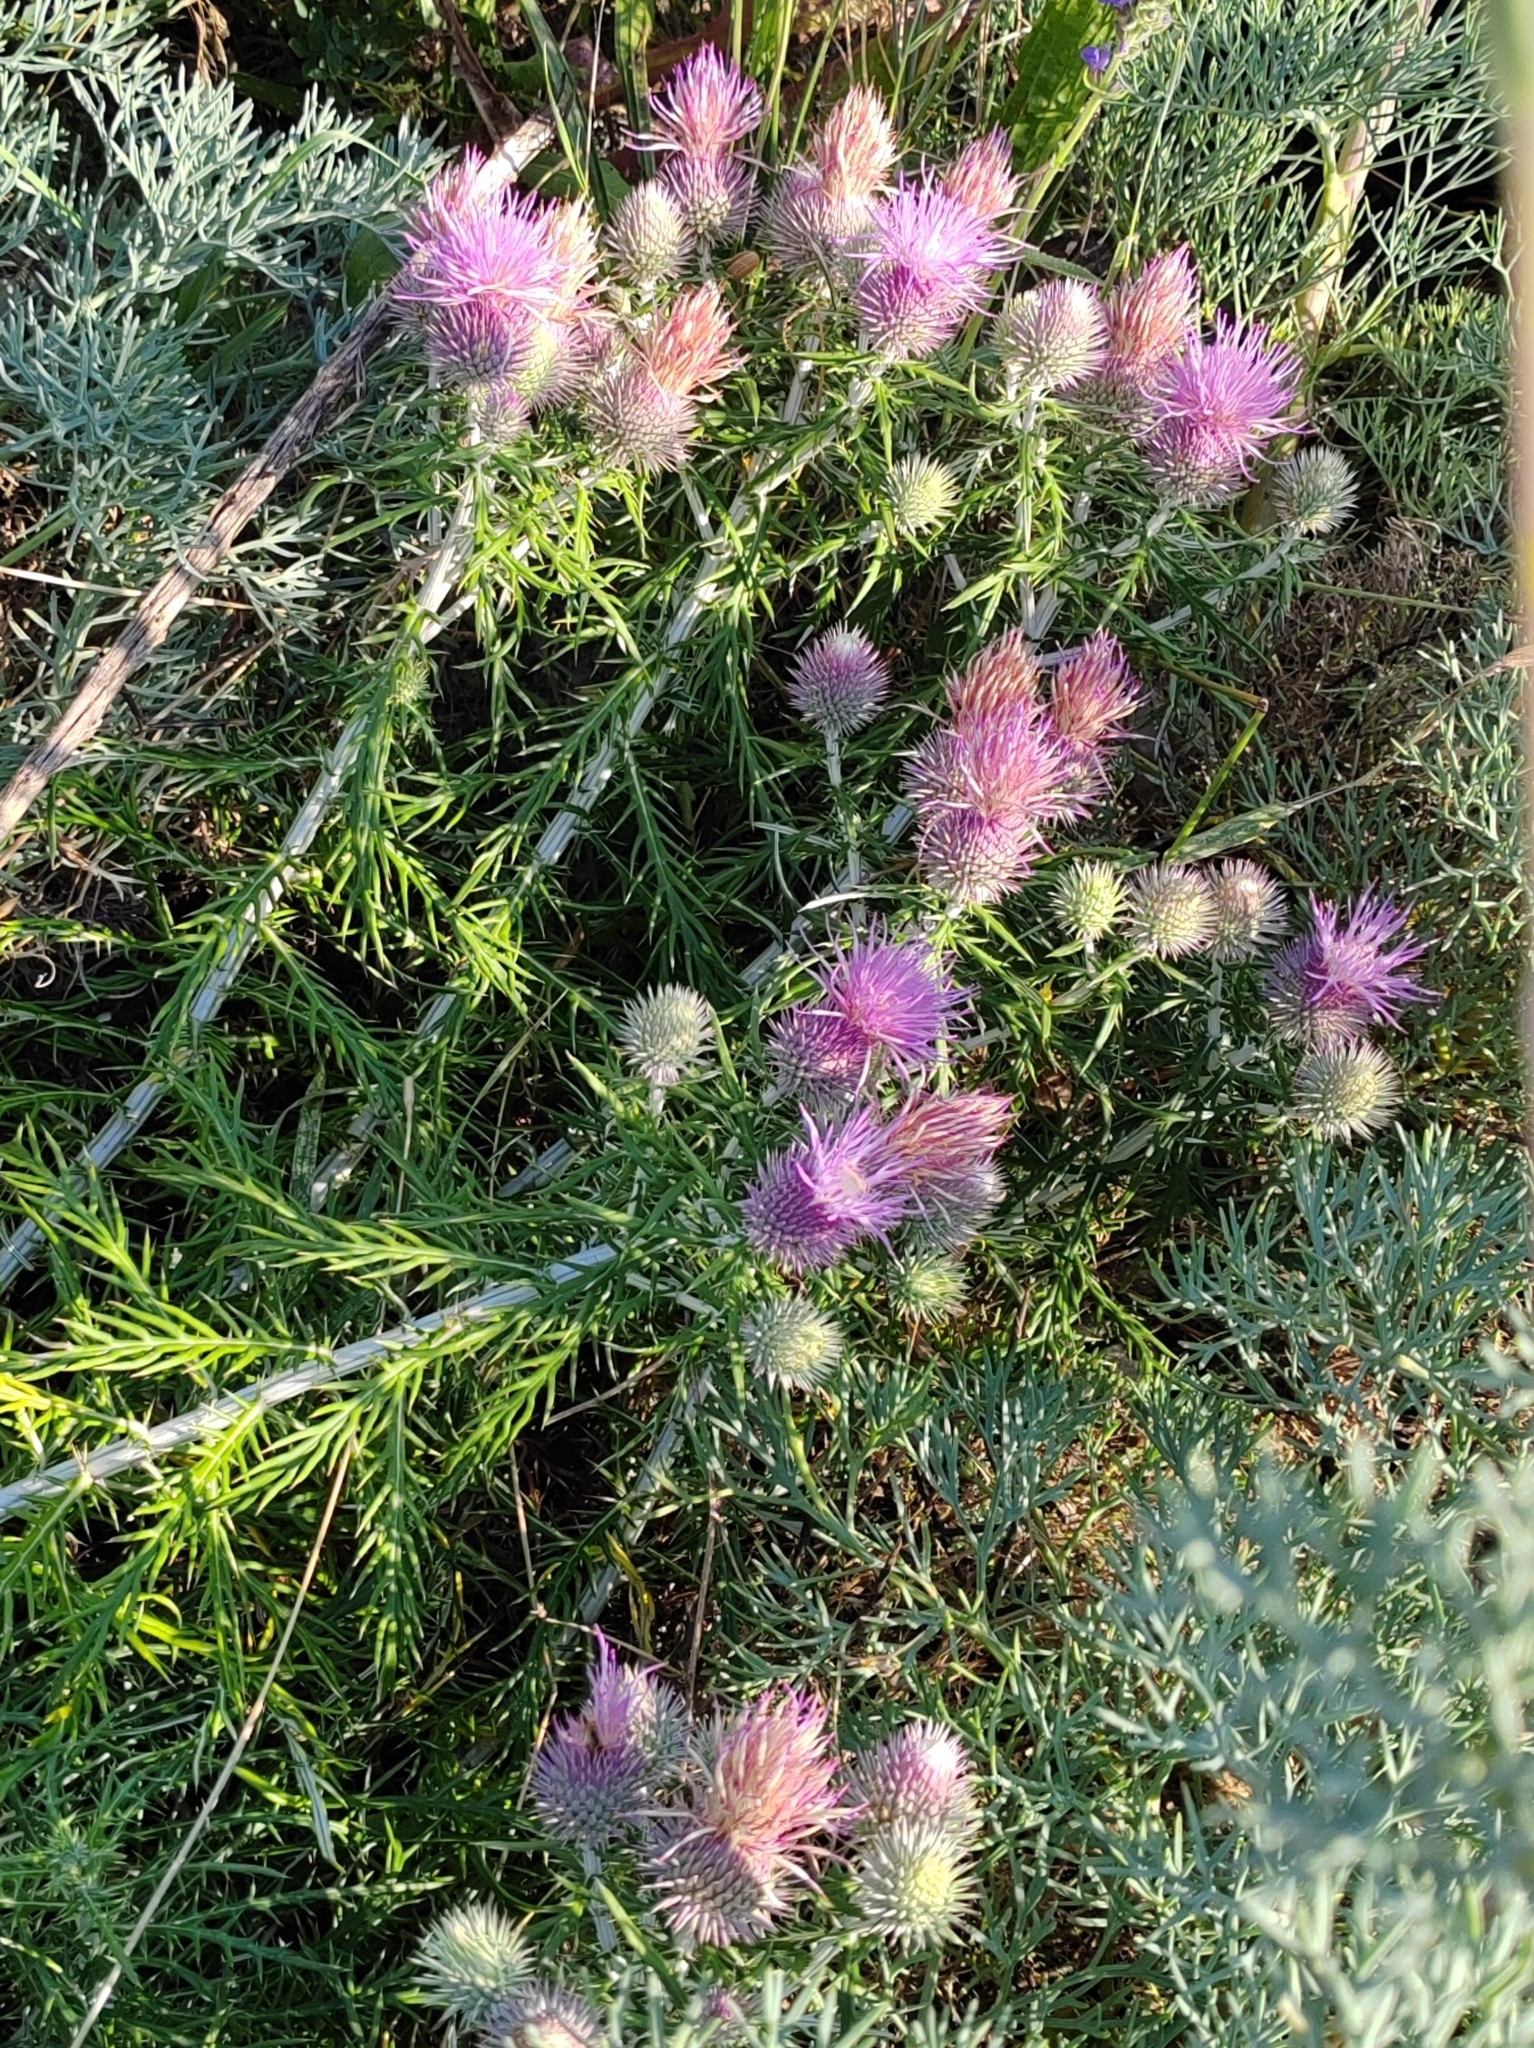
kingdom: Plantae
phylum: Tracheophyta
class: Magnoliopsida
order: Asterales
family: Asteraceae
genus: Ptilostemon
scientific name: Ptilostemon echinocephalus
